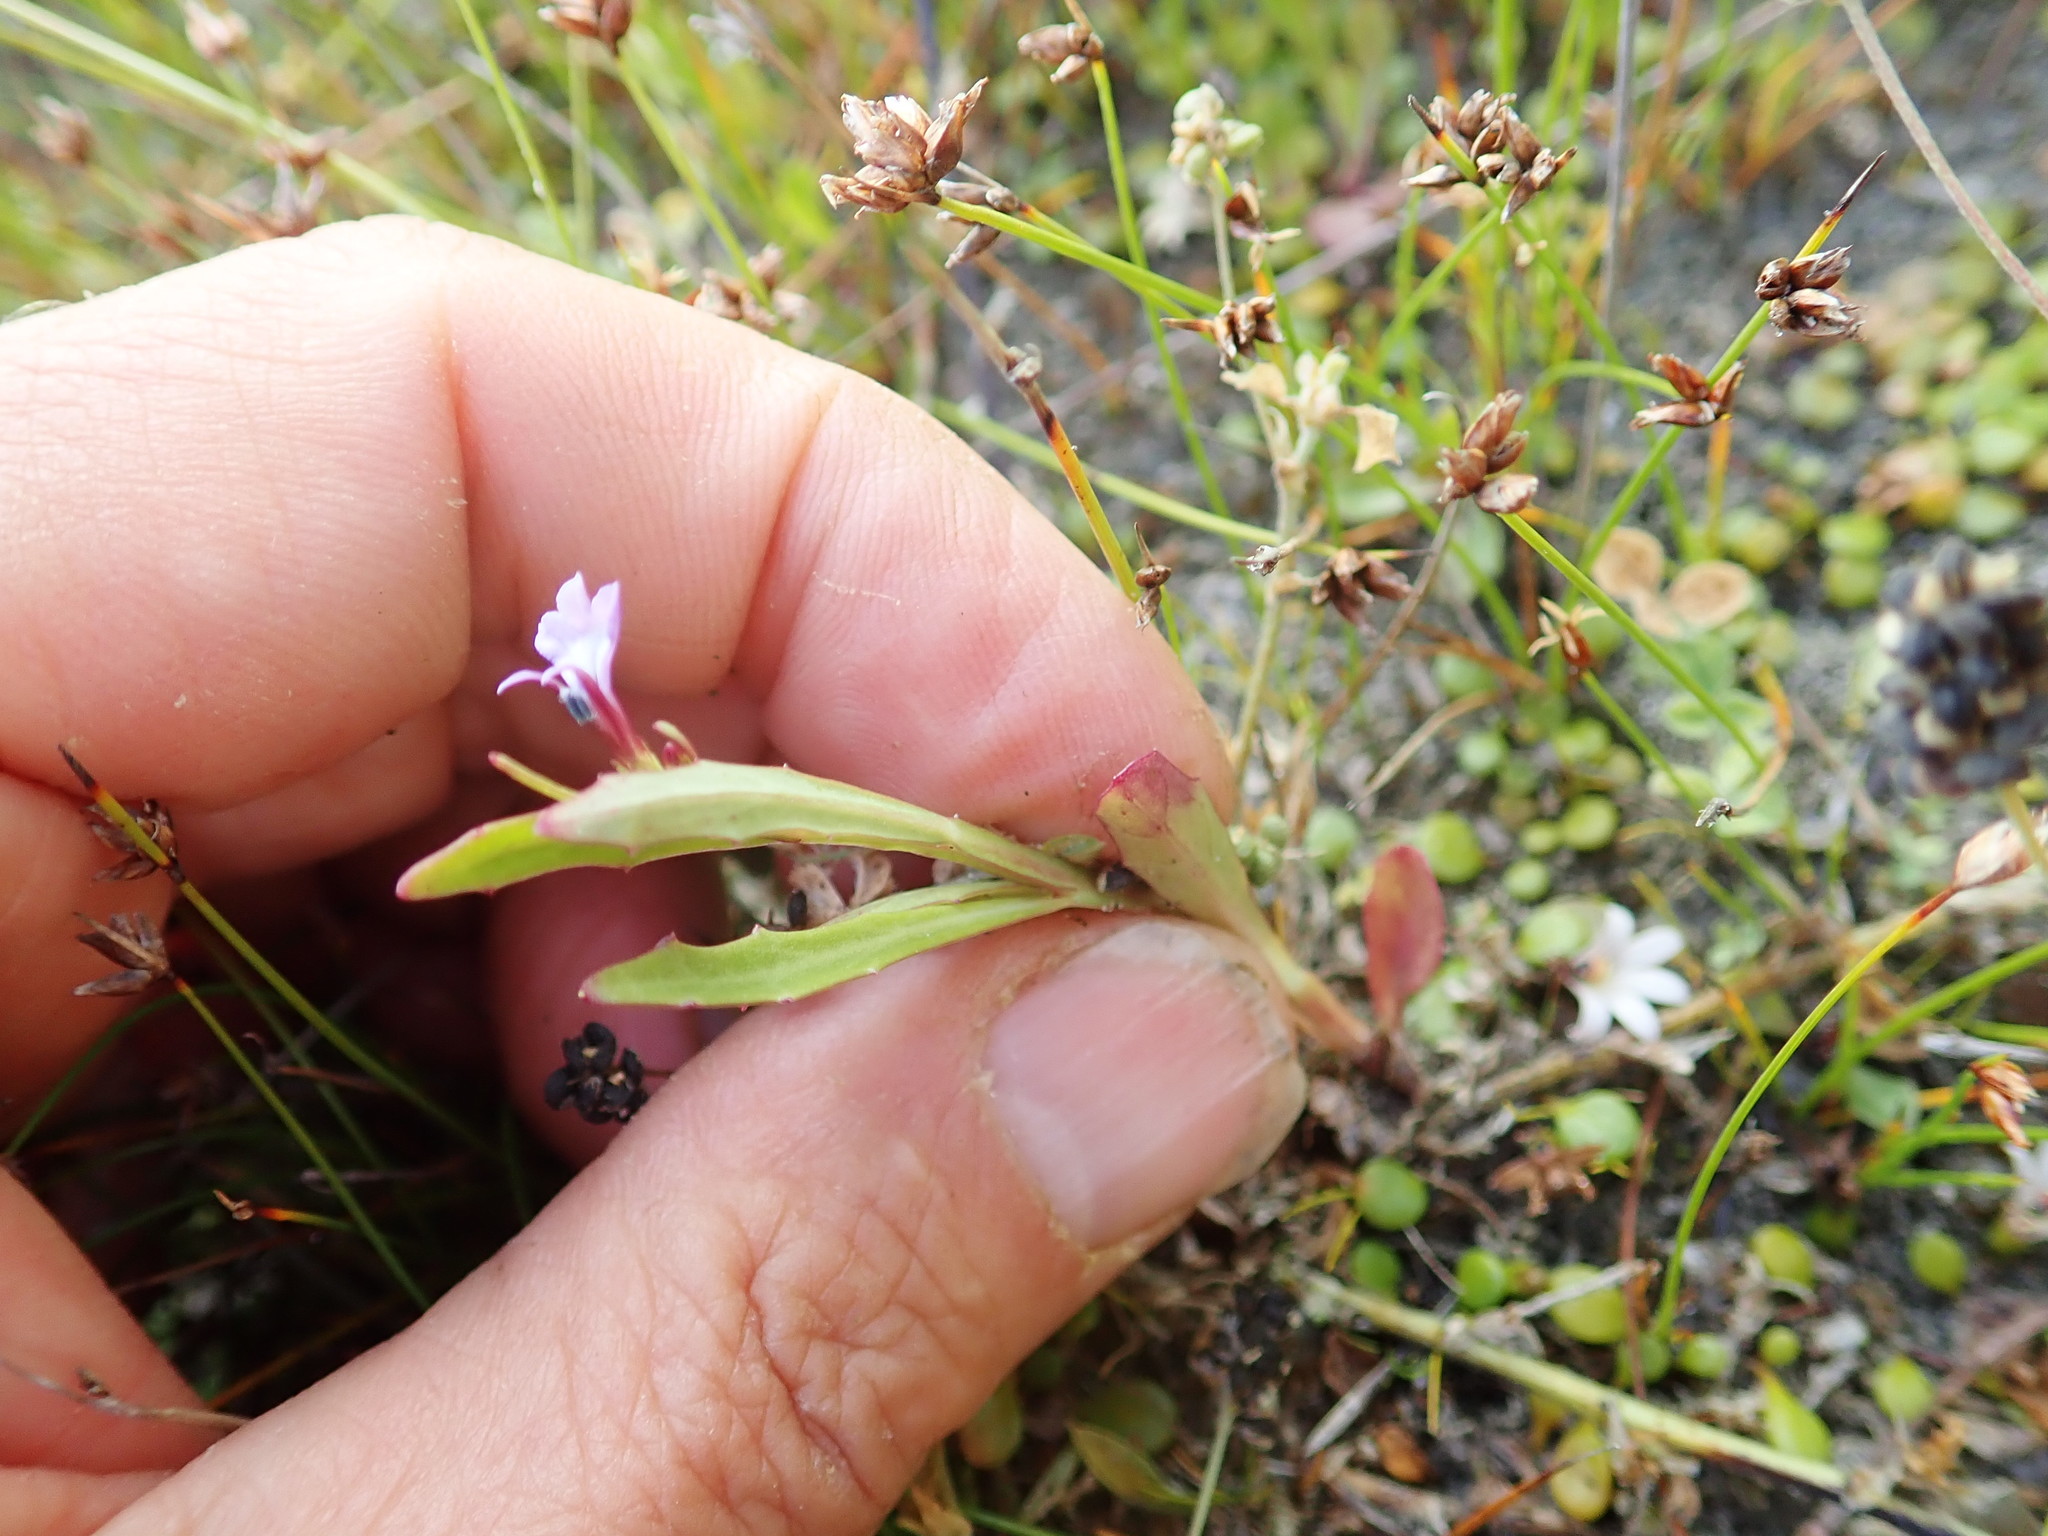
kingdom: Plantae
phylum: Tracheophyta
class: Magnoliopsida
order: Asterales
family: Campanulaceae
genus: Lobelia
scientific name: Lobelia anceps
